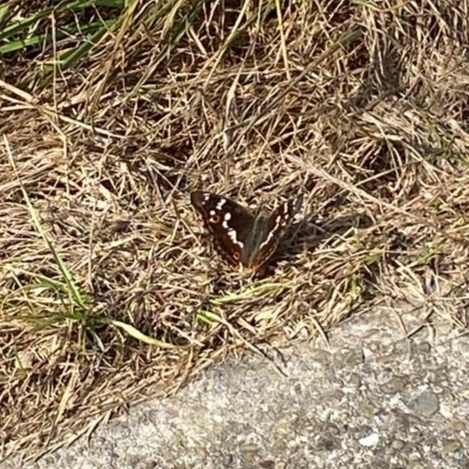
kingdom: Animalia
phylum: Arthropoda
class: Insecta
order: Lepidoptera
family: Nymphalidae
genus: Apatura
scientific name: Apatura ilia
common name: Lesser purple emperor
